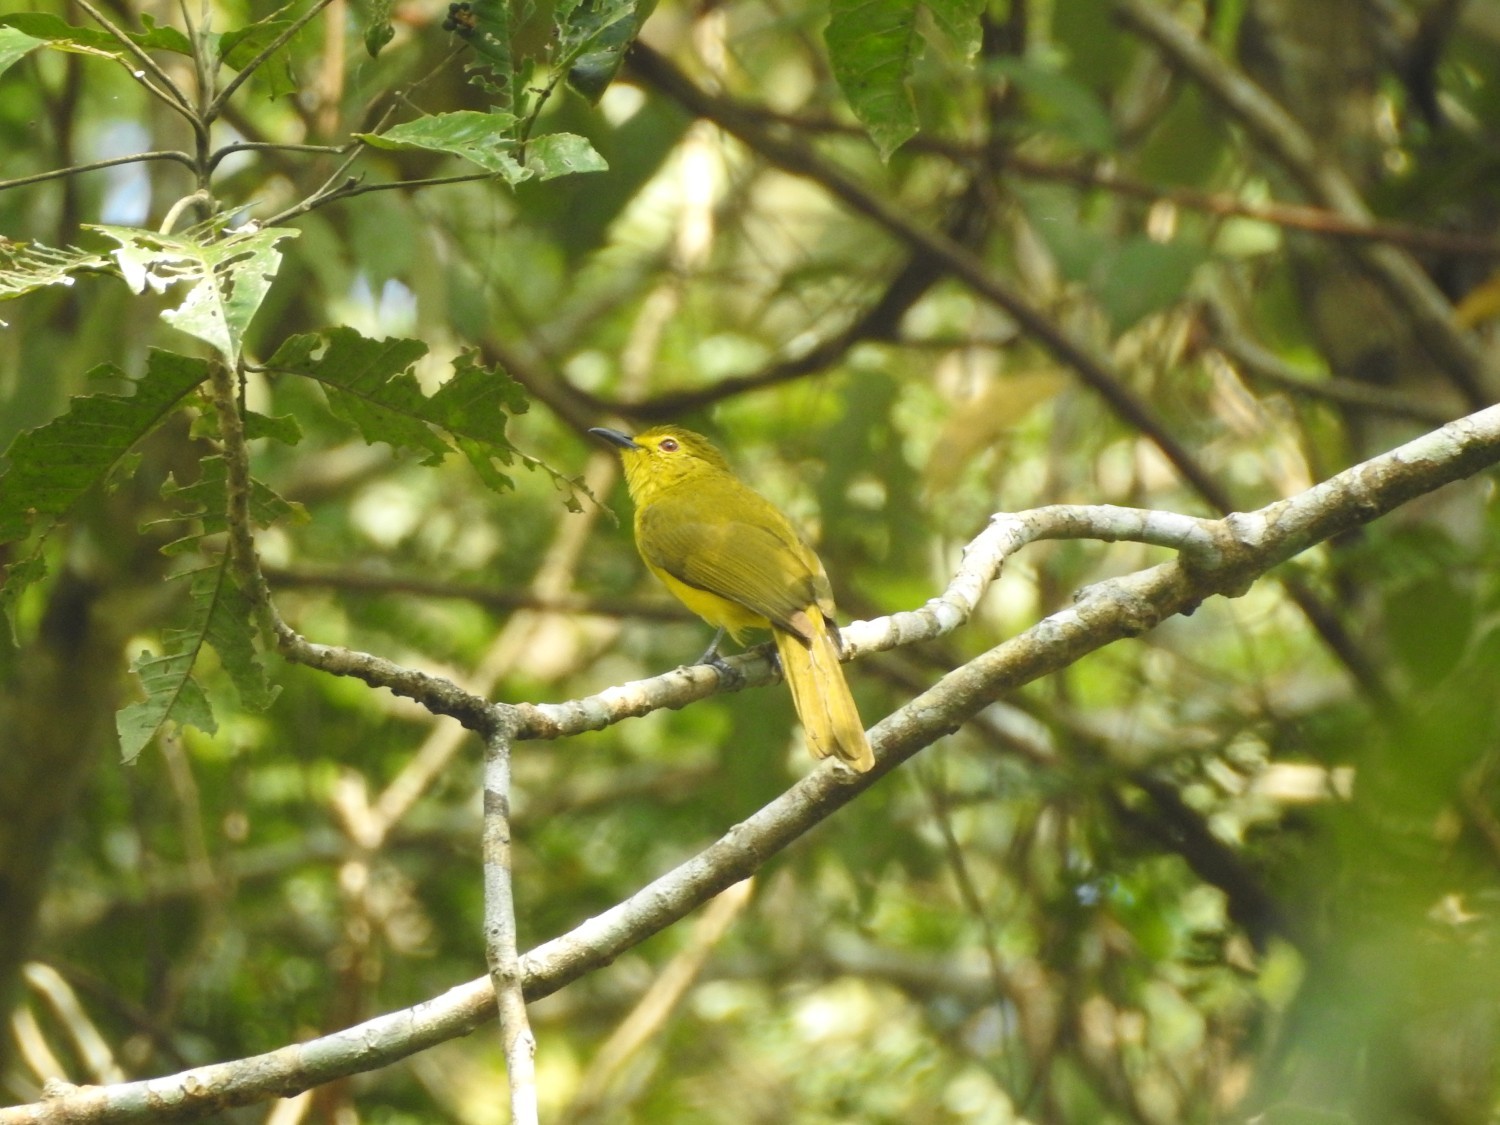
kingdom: Animalia
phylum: Chordata
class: Aves
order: Passeriformes
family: Pycnonotidae
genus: Acritillas
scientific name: Acritillas indica
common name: Yellow-browed bulbul
